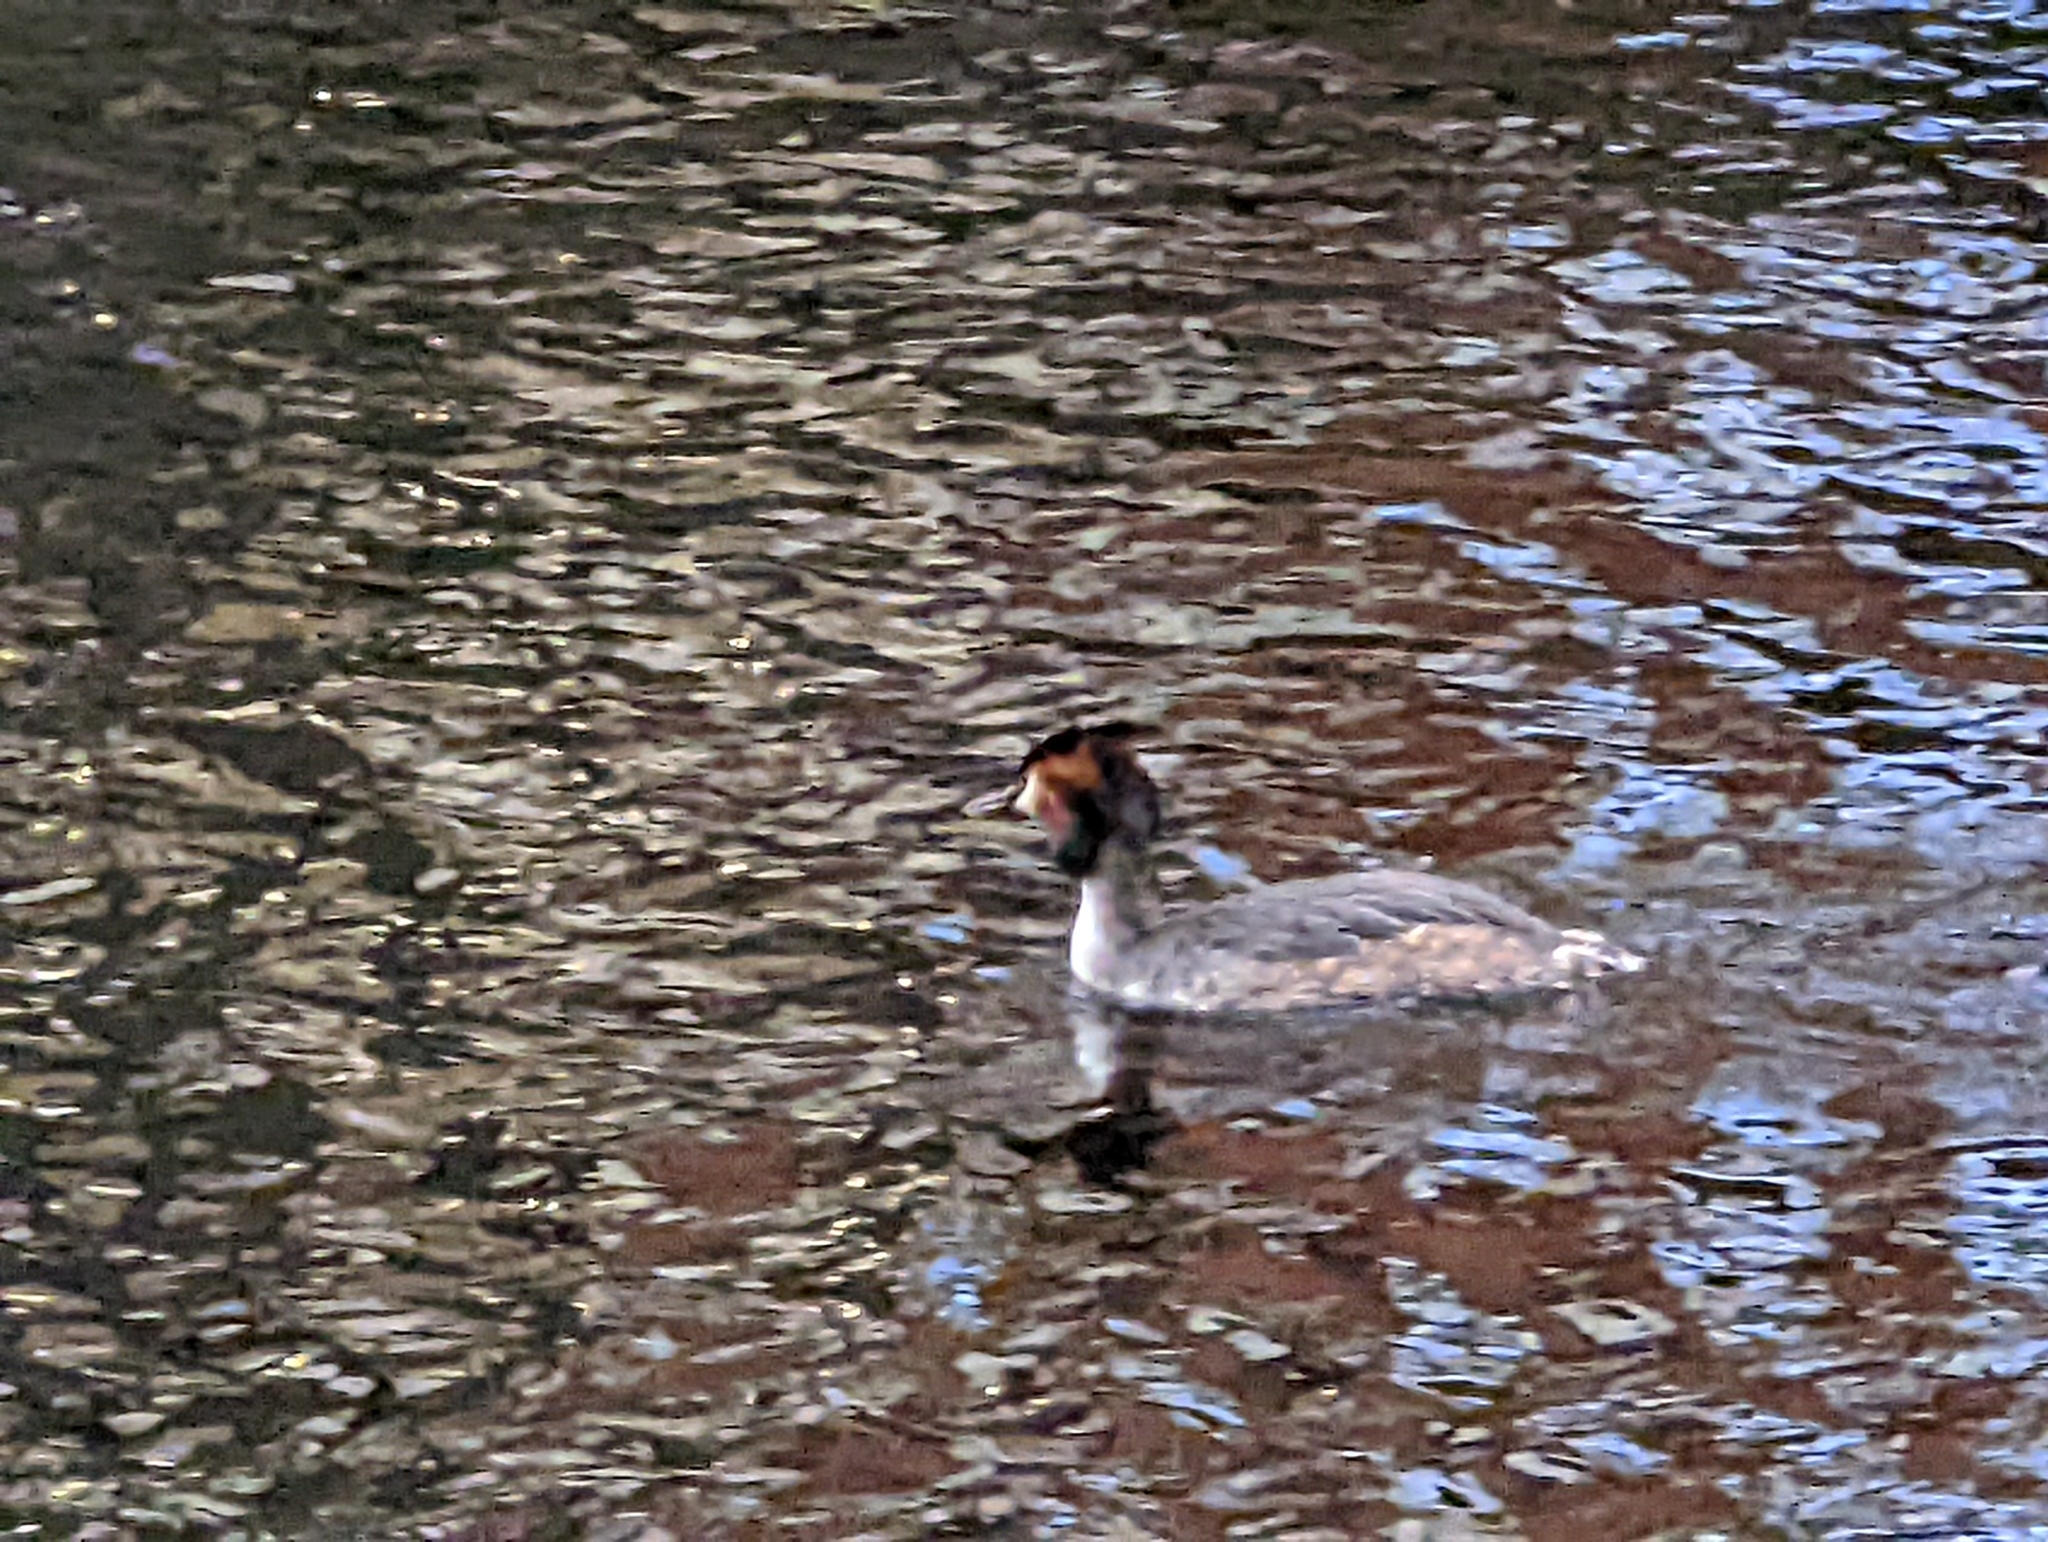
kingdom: Animalia
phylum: Chordata
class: Aves
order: Podicipediformes
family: Podicipedidae
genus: Podiceps
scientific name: Podiceps cristatus
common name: Great crested grebe
